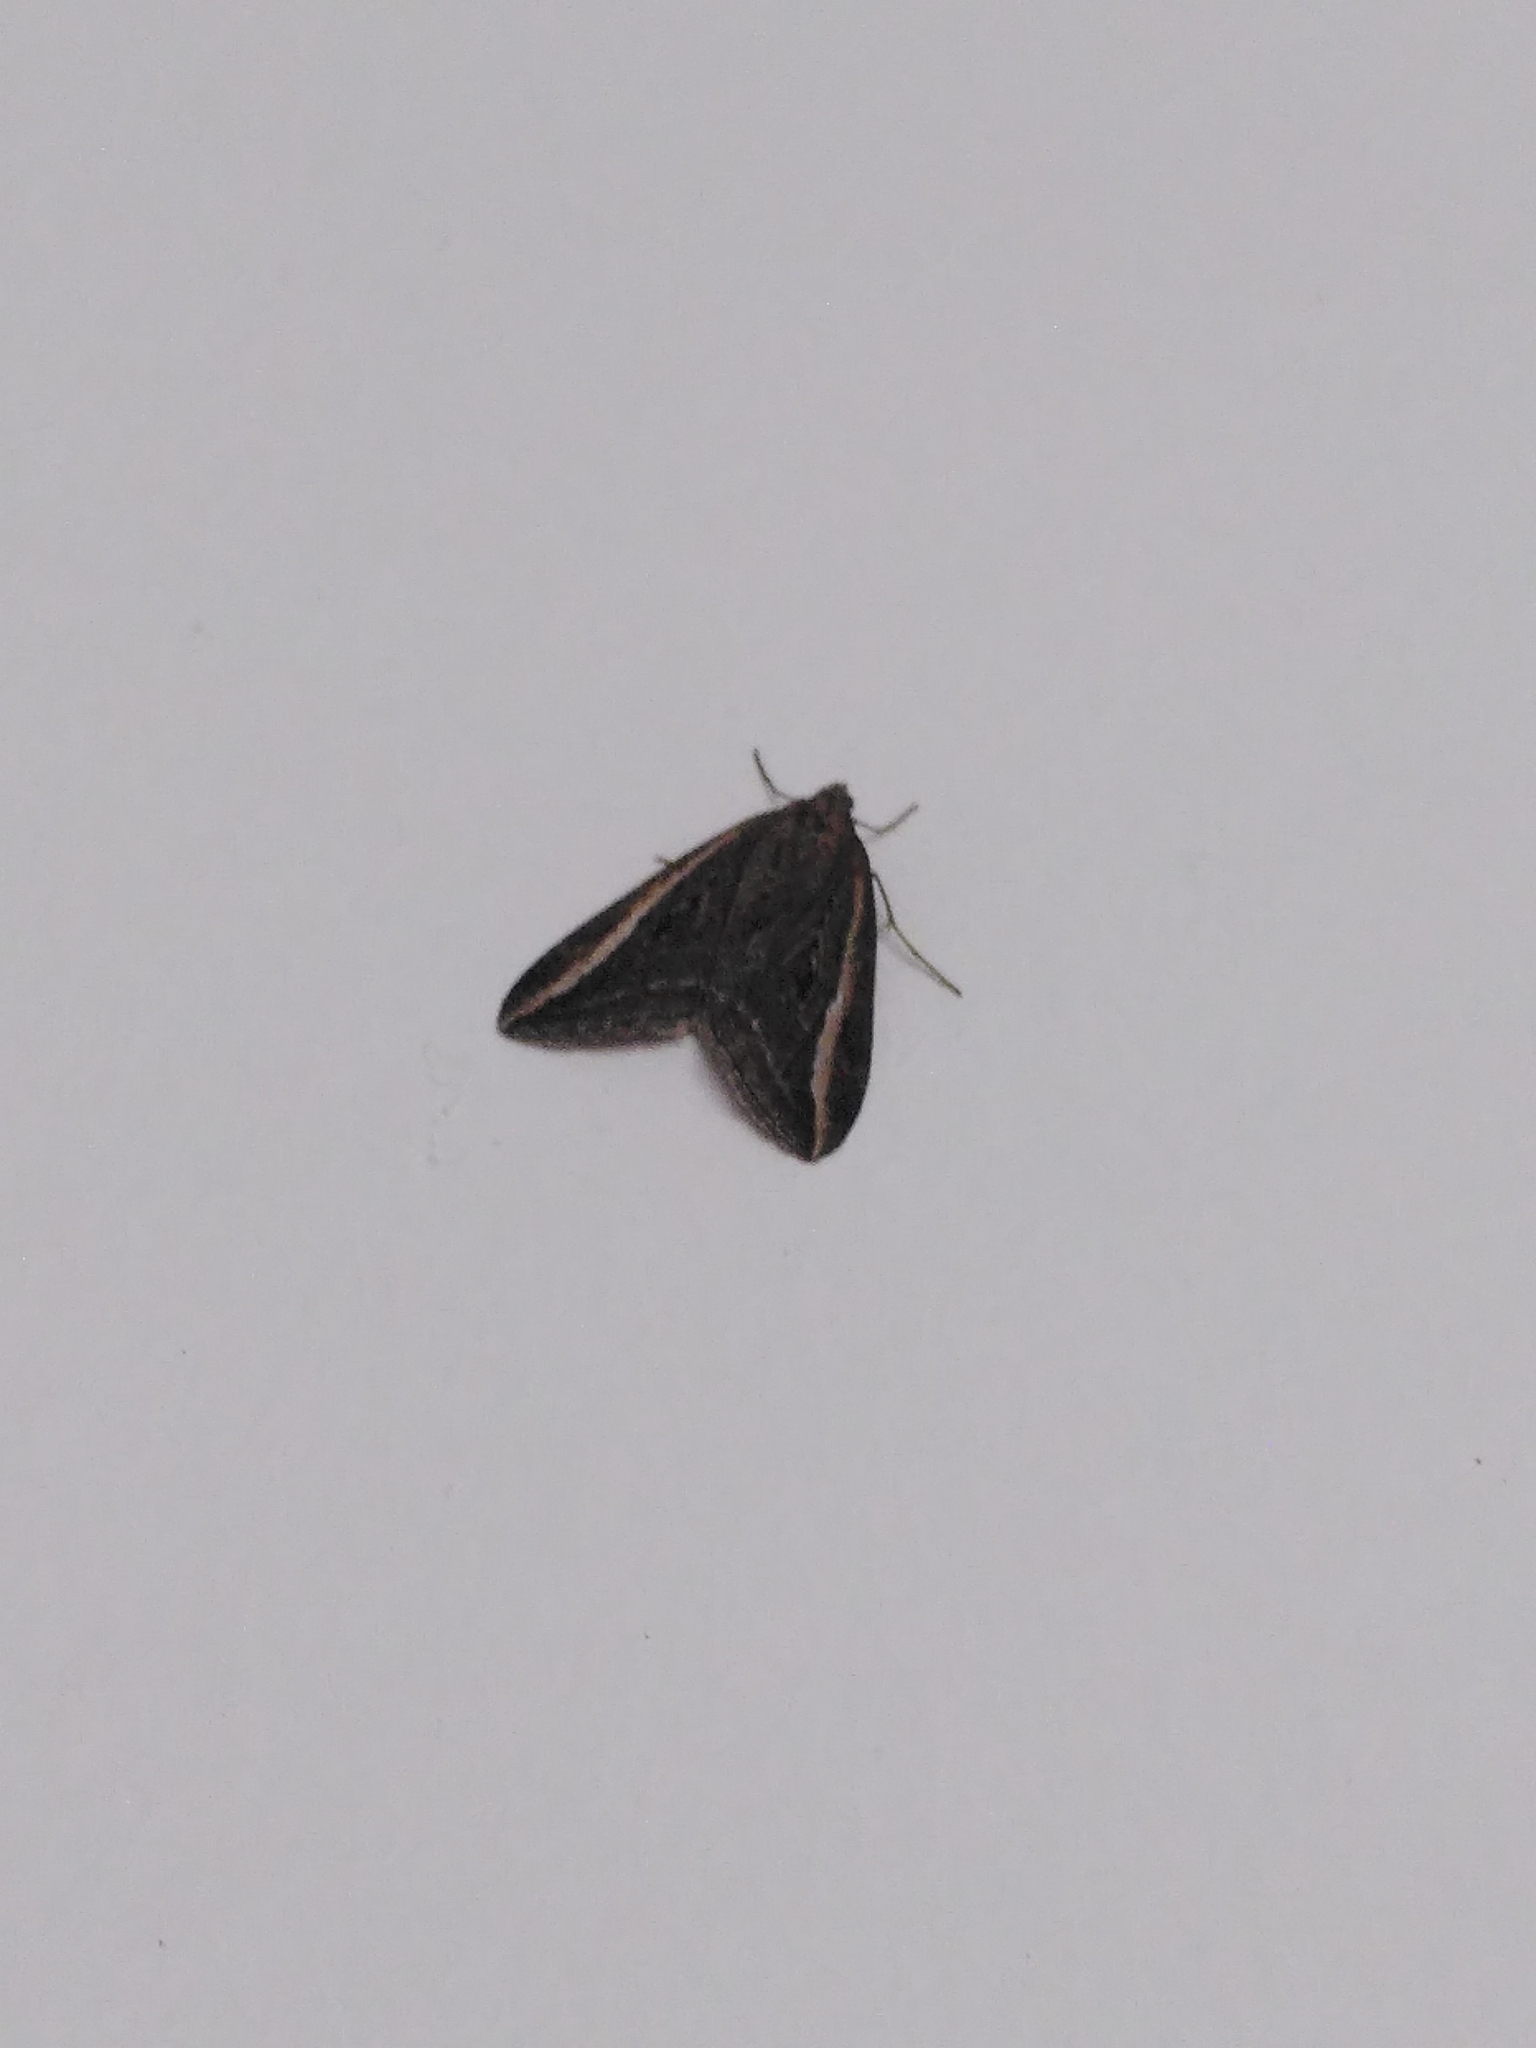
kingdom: Animalia
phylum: Arthropoda
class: Insecta
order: Lepidoptera
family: Geometridae
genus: Chesias
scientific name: Chesias legatella
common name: Streak
